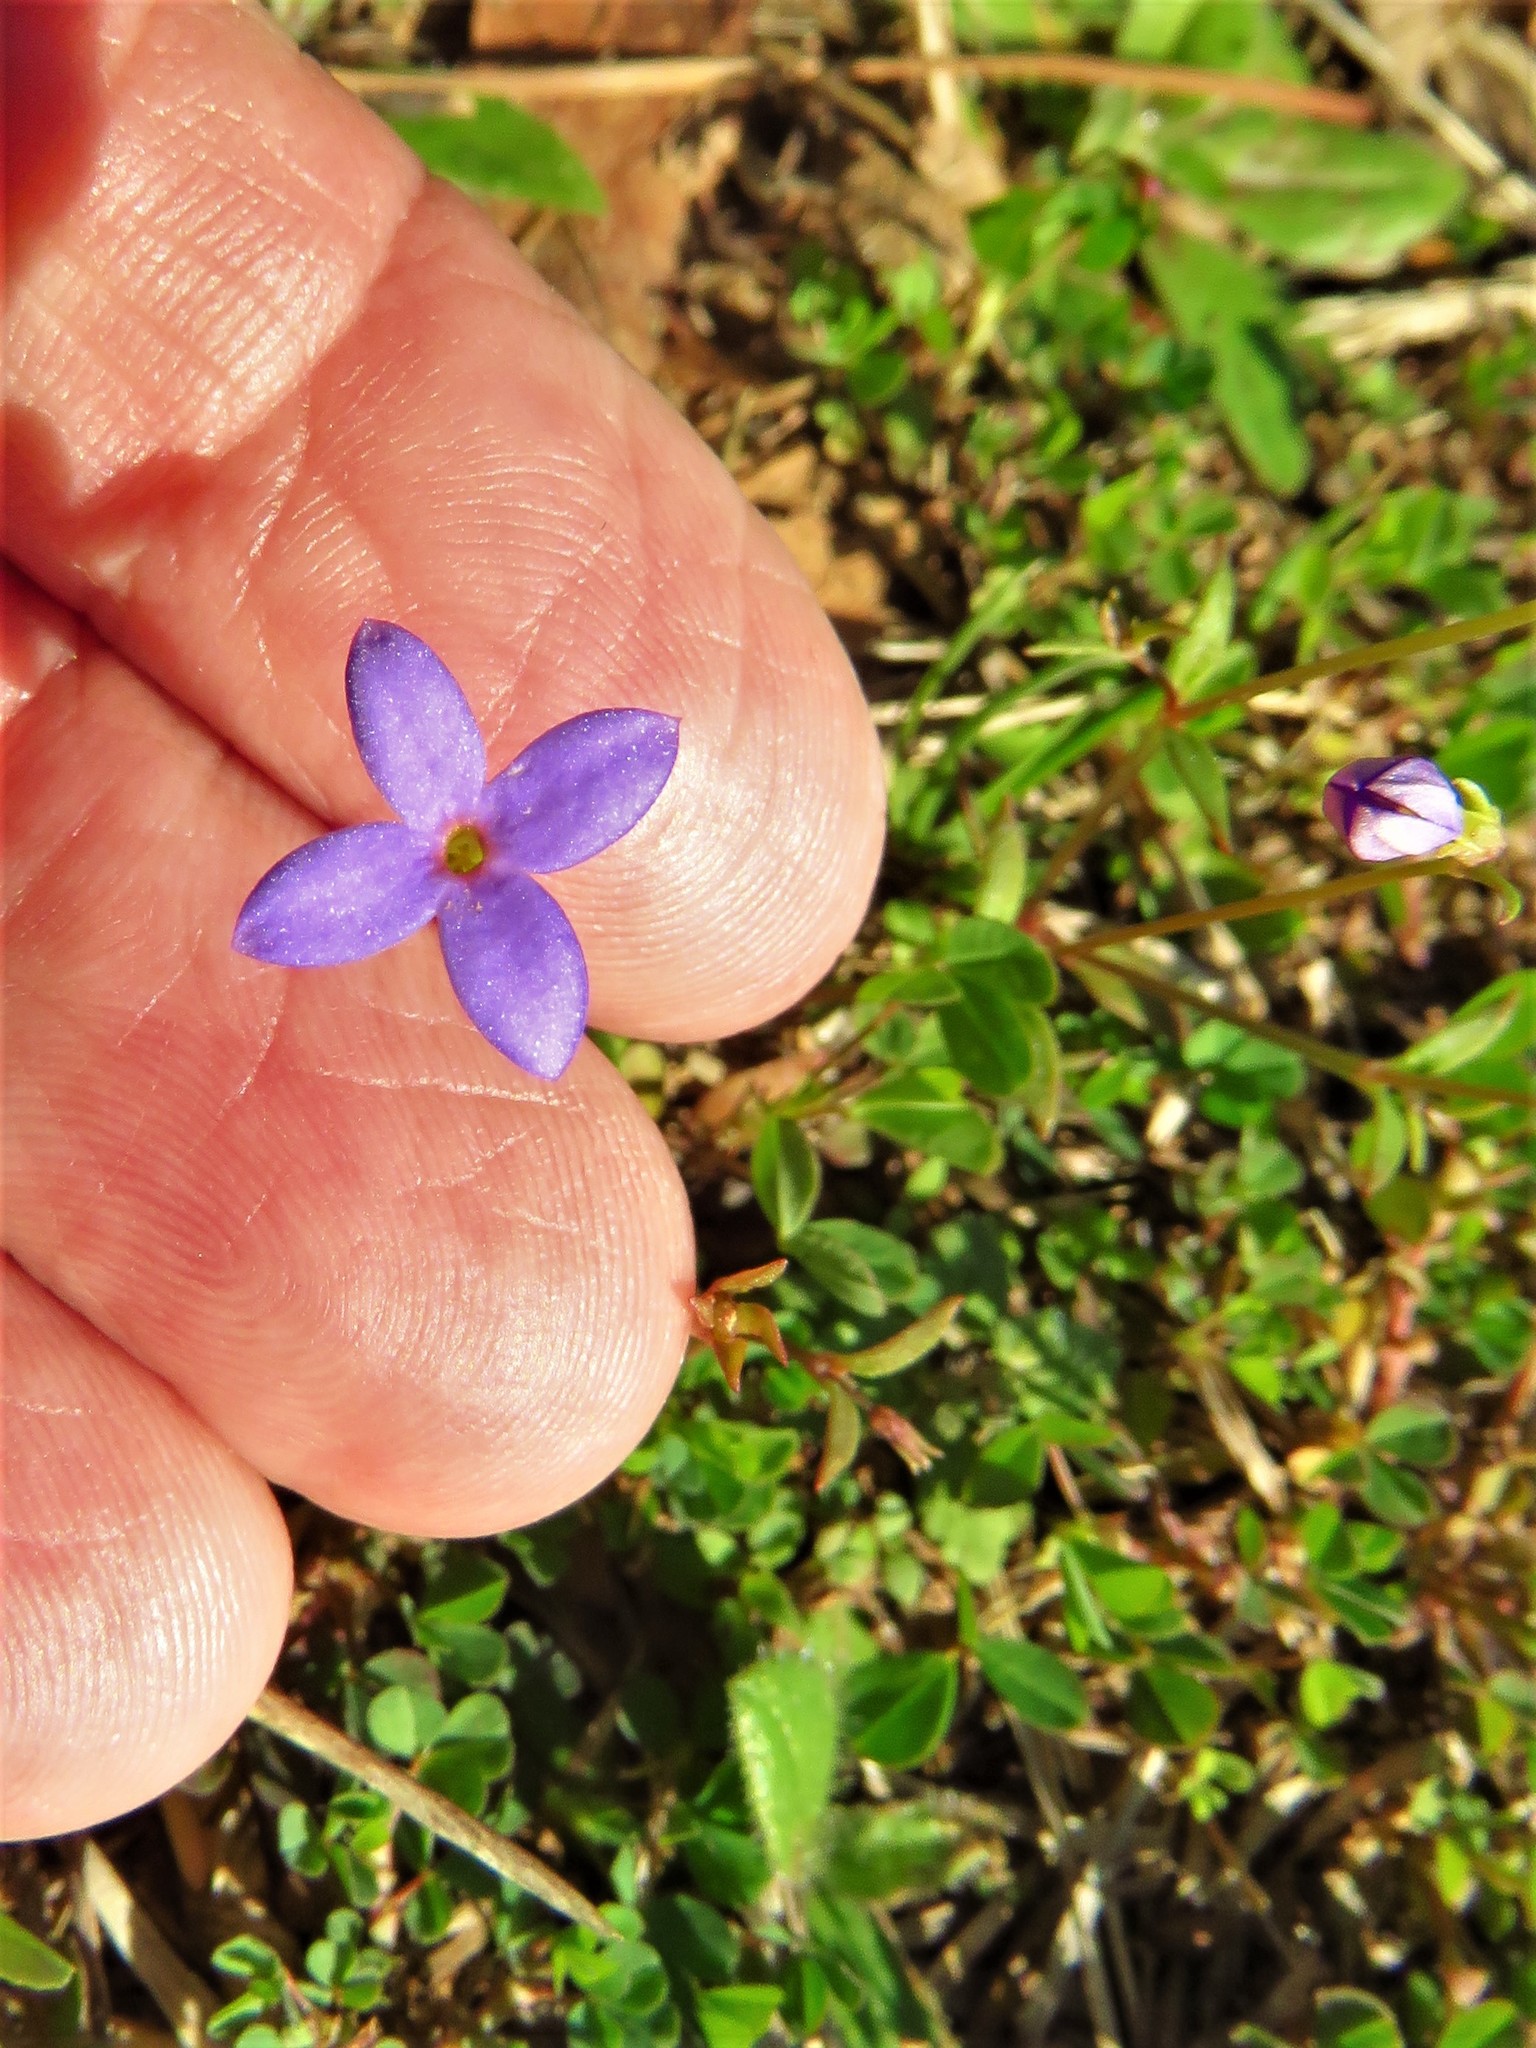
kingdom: Plantae
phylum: Tracheophyta
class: Magnoliopsida
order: Gentianales
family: Rubiaceae
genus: Houstonia
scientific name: Houstonia pusilla
